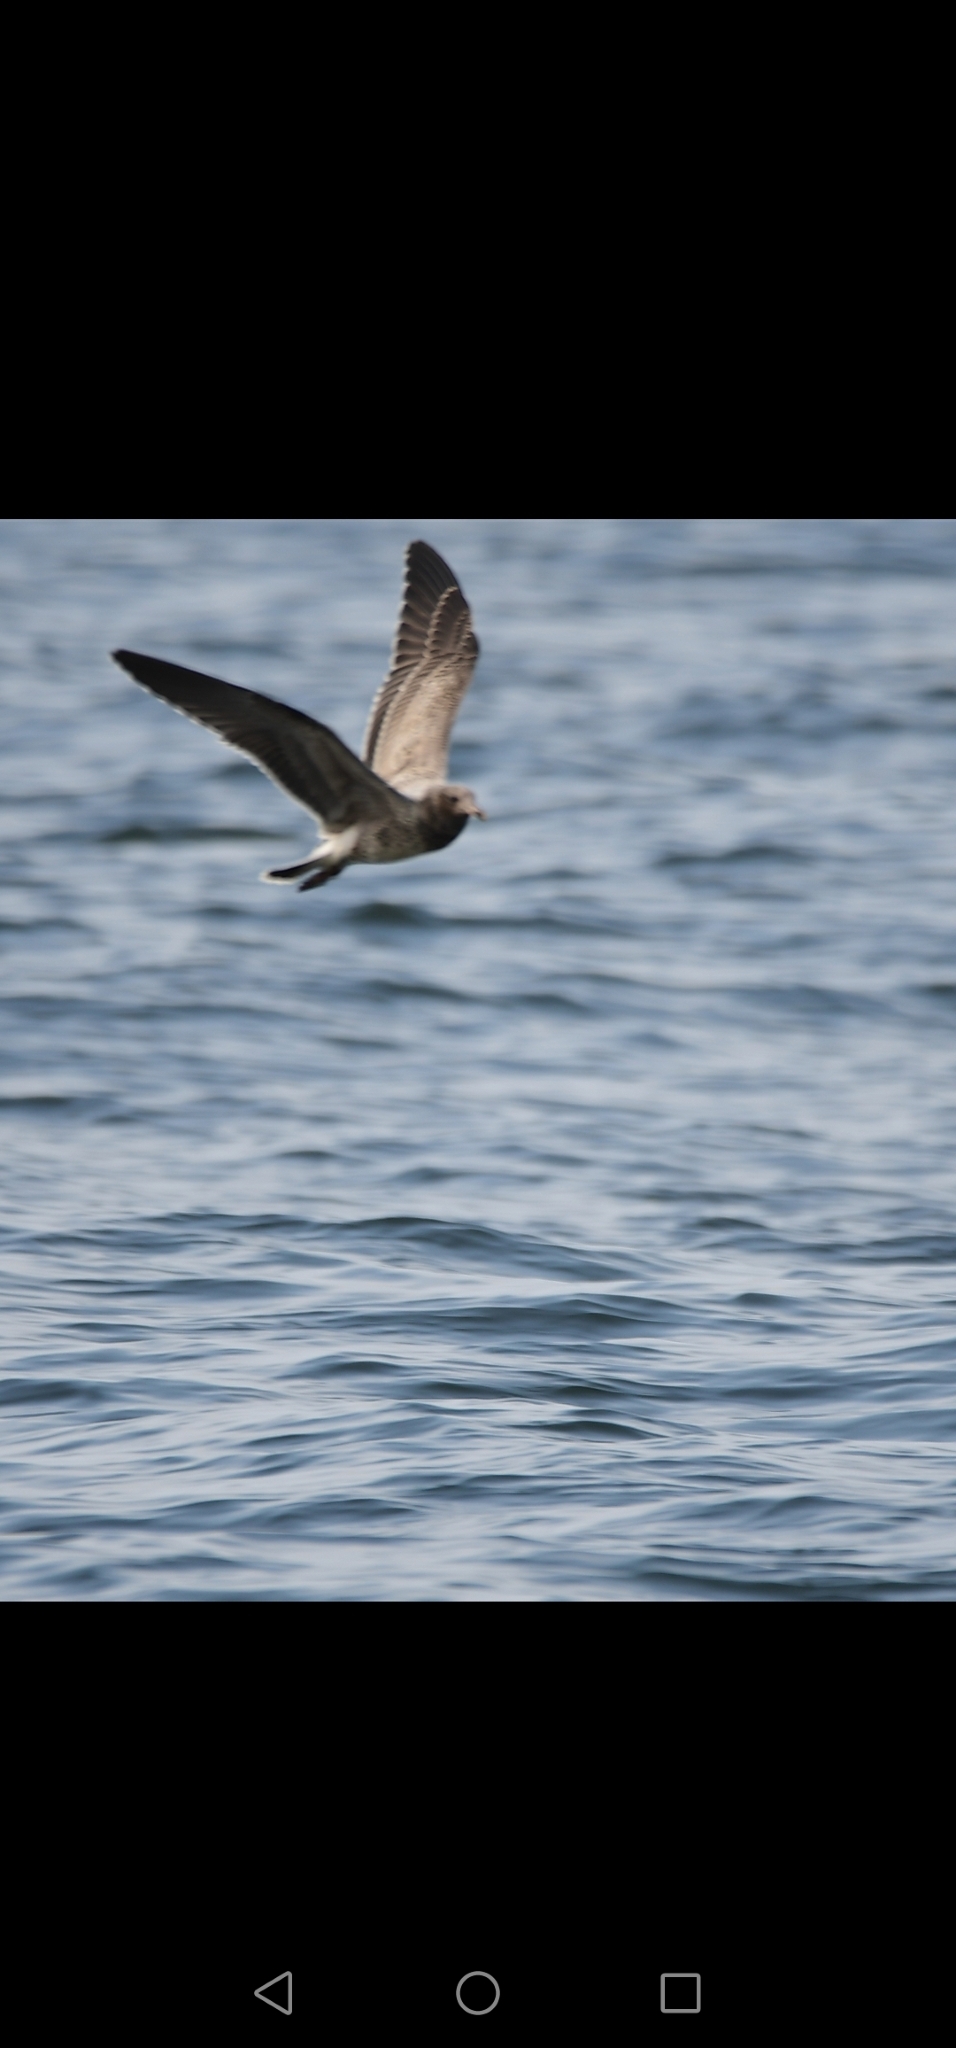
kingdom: Animalia
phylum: Chordata
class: Aves
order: Charadriiformes
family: Laridae
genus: Larosterna
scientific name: Larosterna inca
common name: Inca tern
